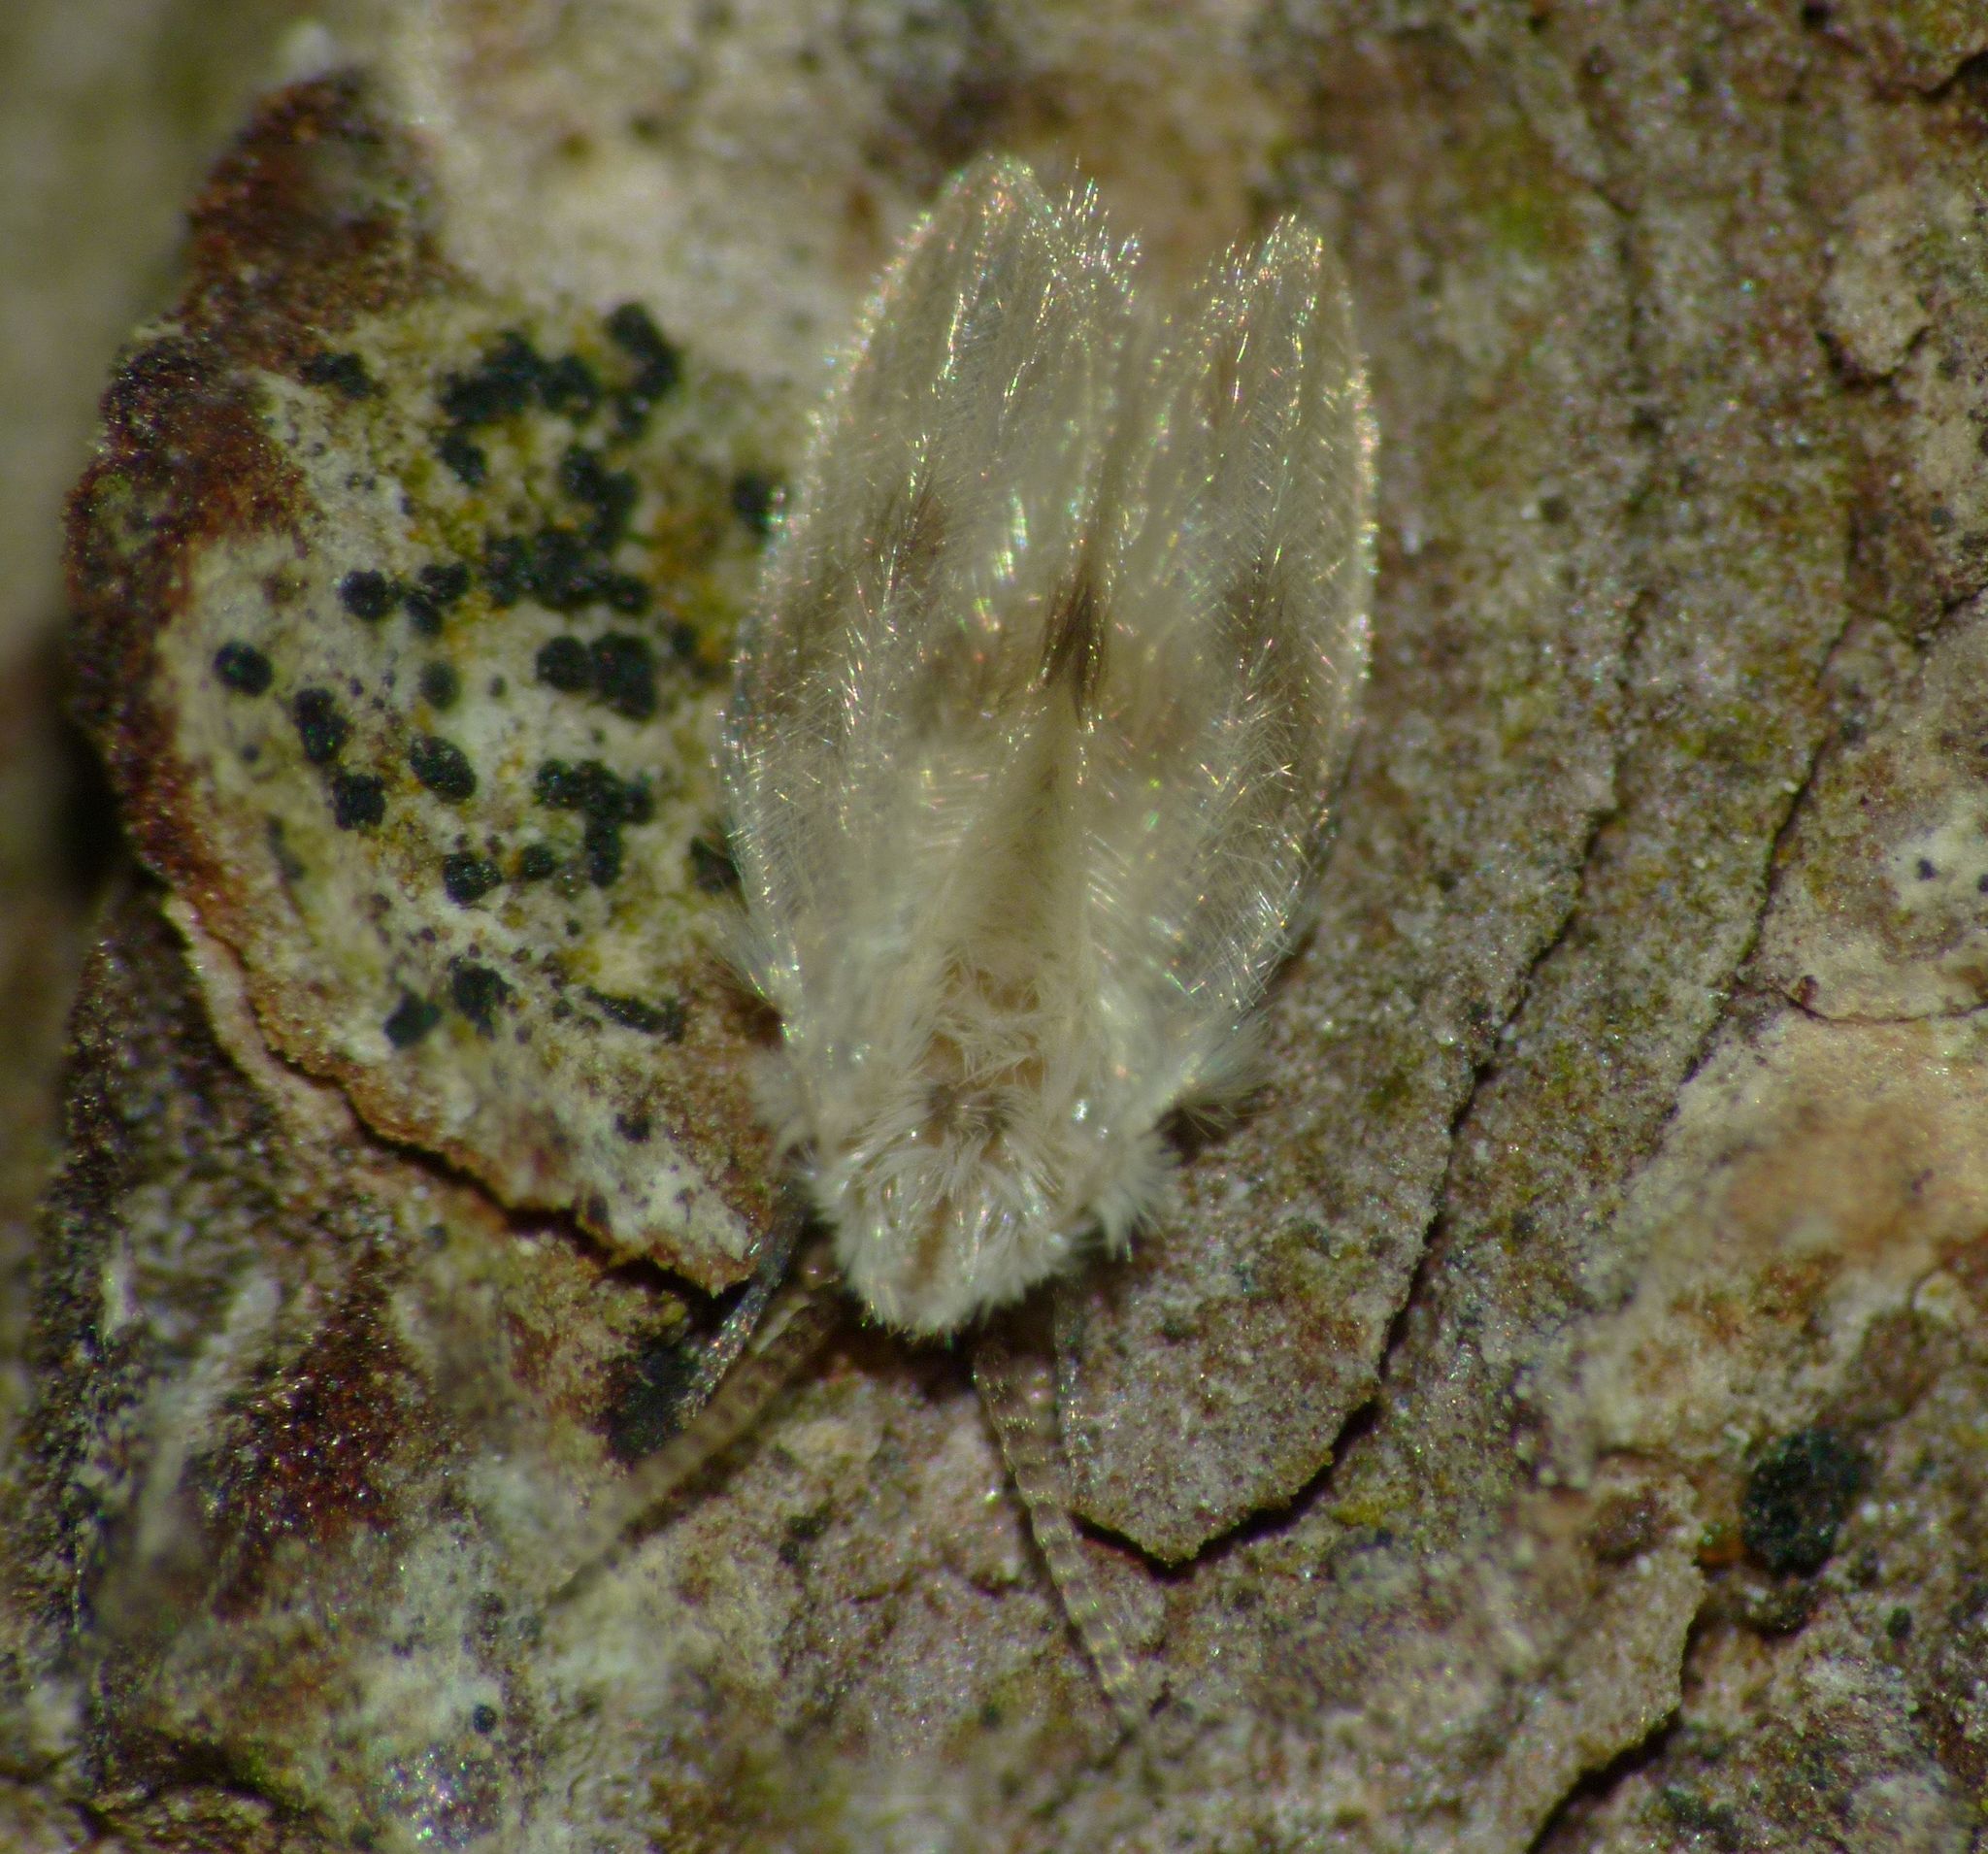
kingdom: Animalia
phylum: Arthropoda
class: Insecta
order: Diptera
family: Psychodidae
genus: Psychoda
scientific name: Psychoda sigma
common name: Moth fly
